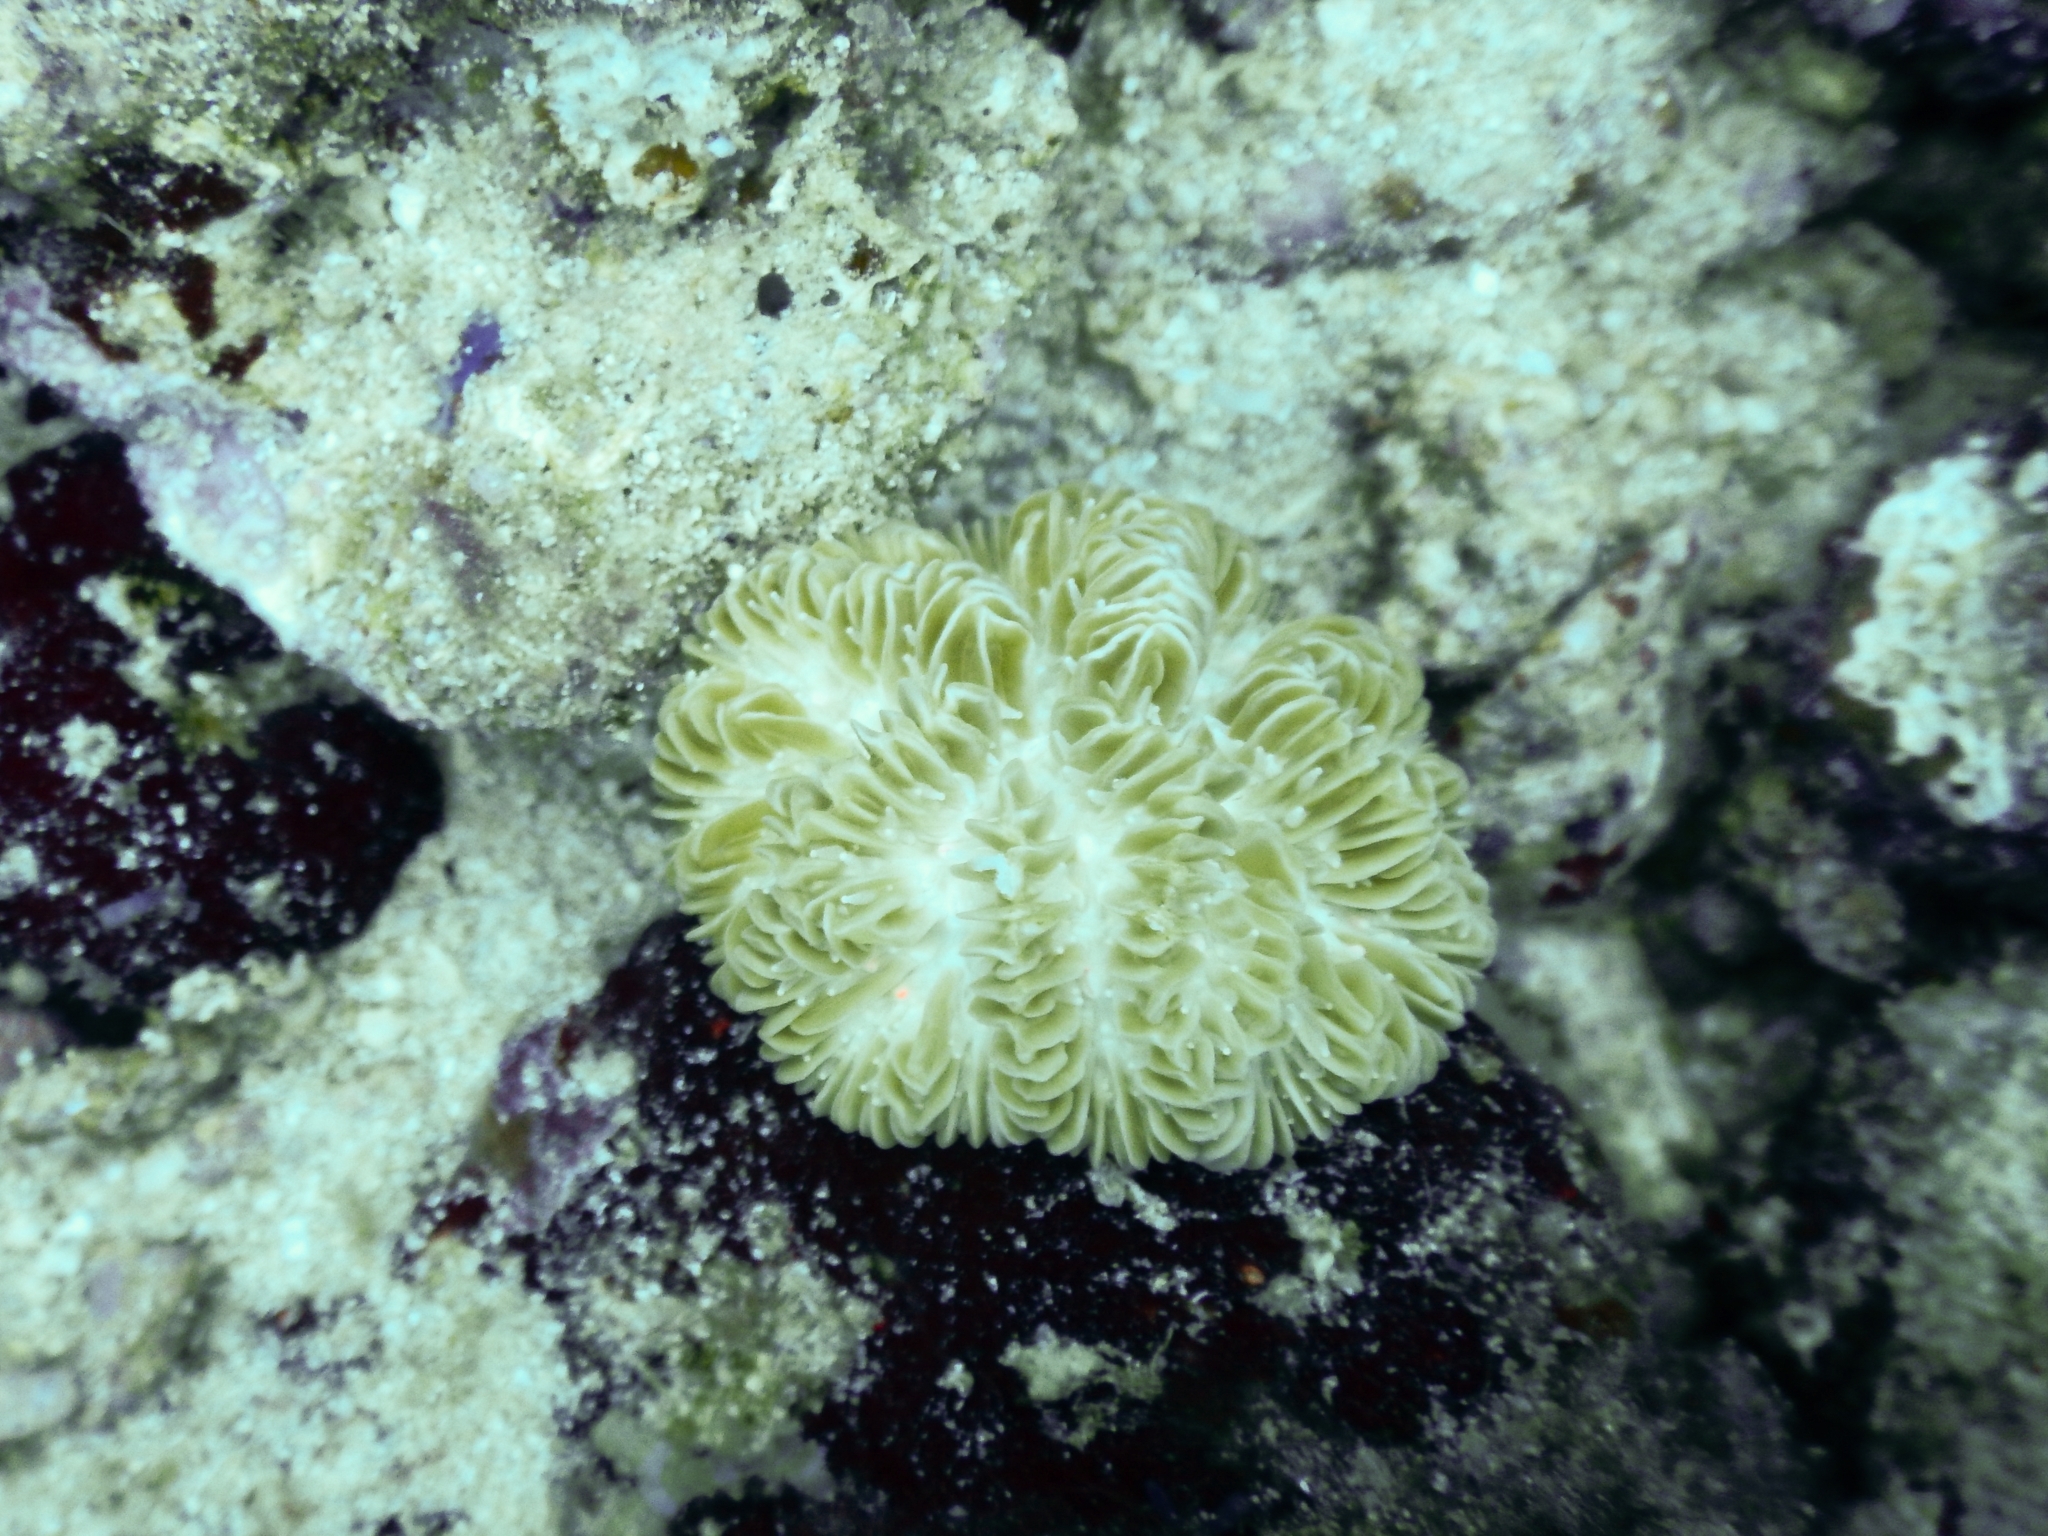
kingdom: Animalia
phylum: Cnidaria
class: Anthozoa
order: Scleractinia
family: Meandrinidae
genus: Meandrina
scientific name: Meandrina meandrites
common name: Maze coral
